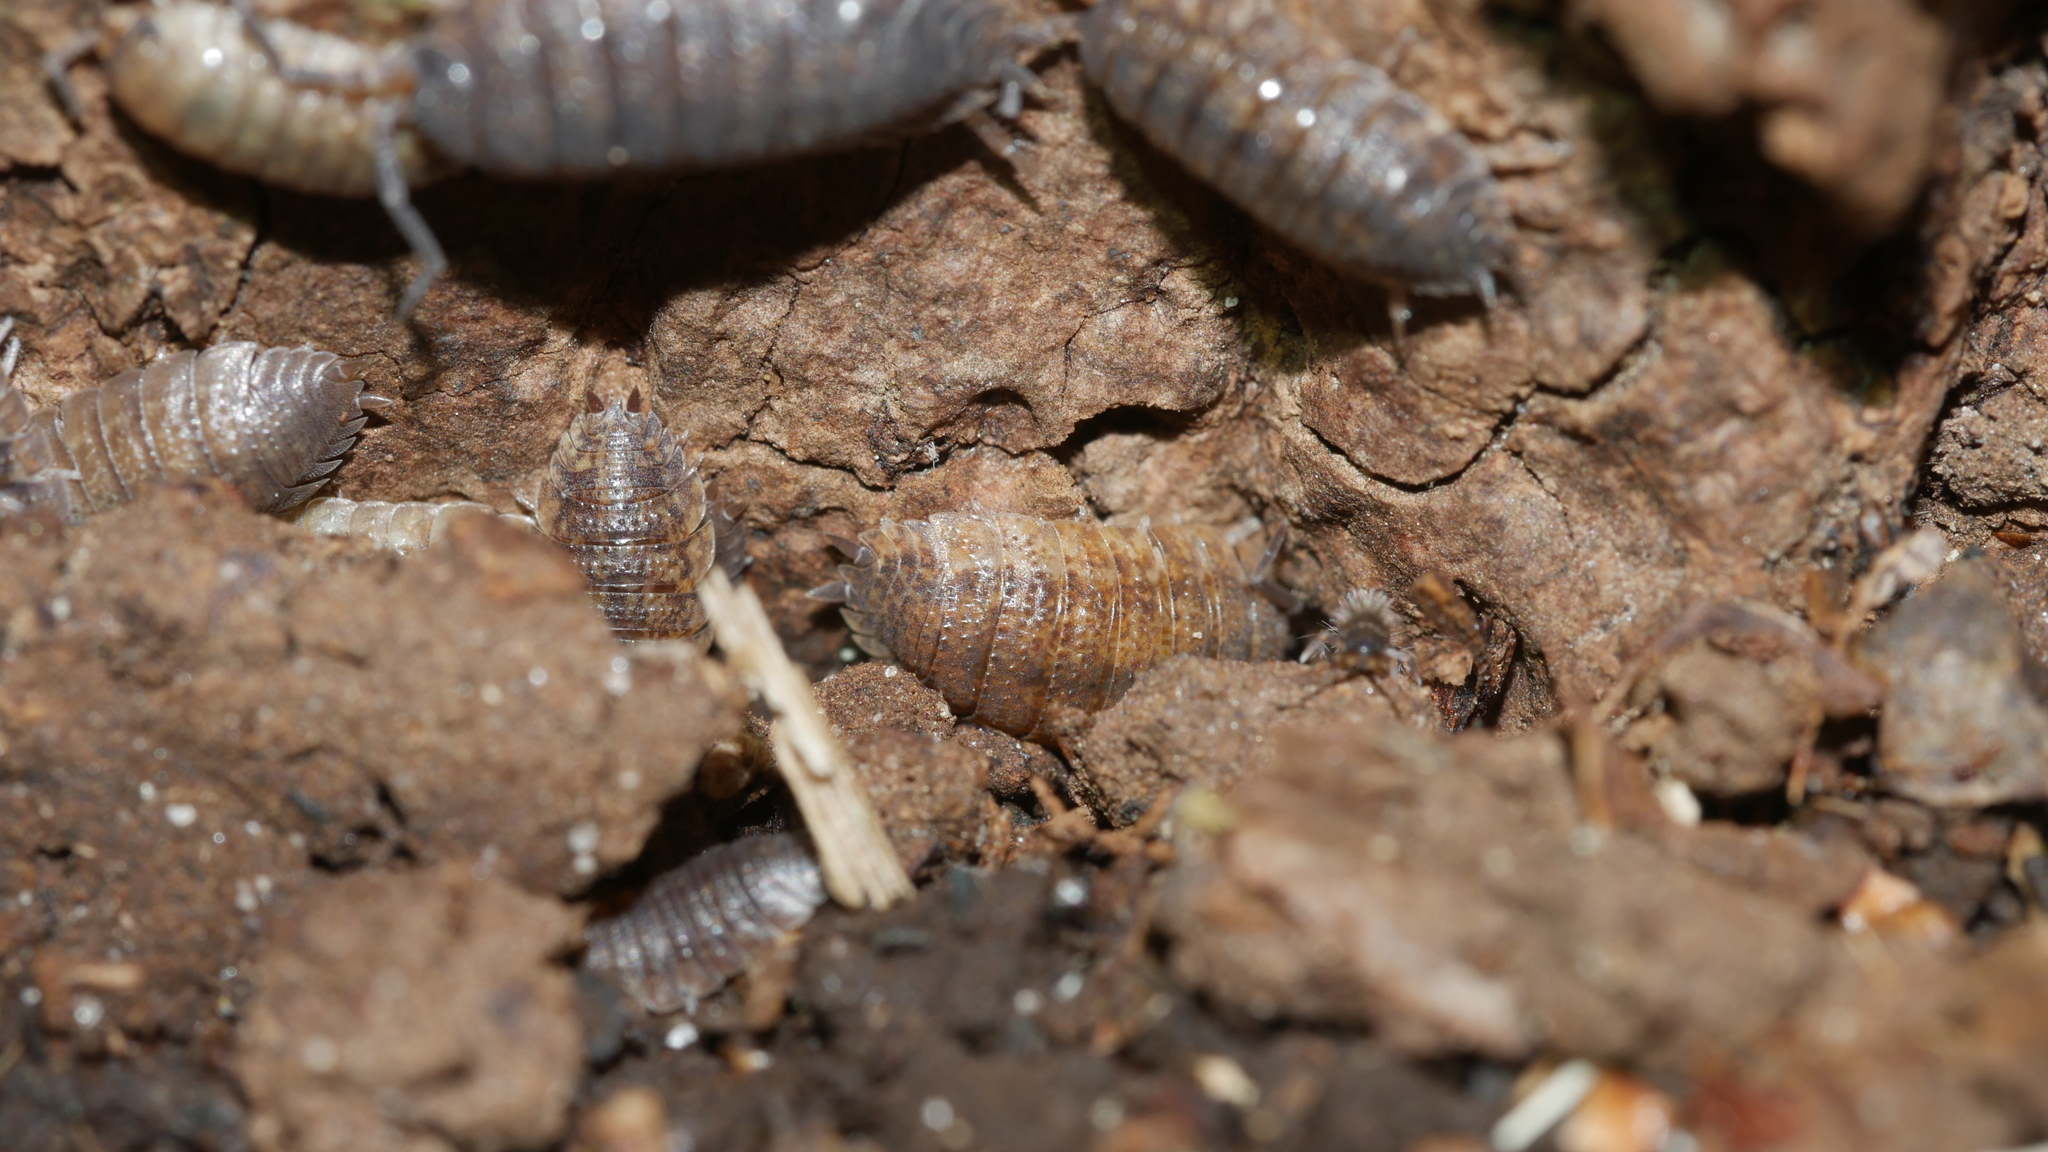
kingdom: Animalia
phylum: Arthropoda
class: Malacostraca
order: Isopoda
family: Porcellionidae
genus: Porcellio
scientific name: Porcellio scaber
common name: Common rough woodlouse
